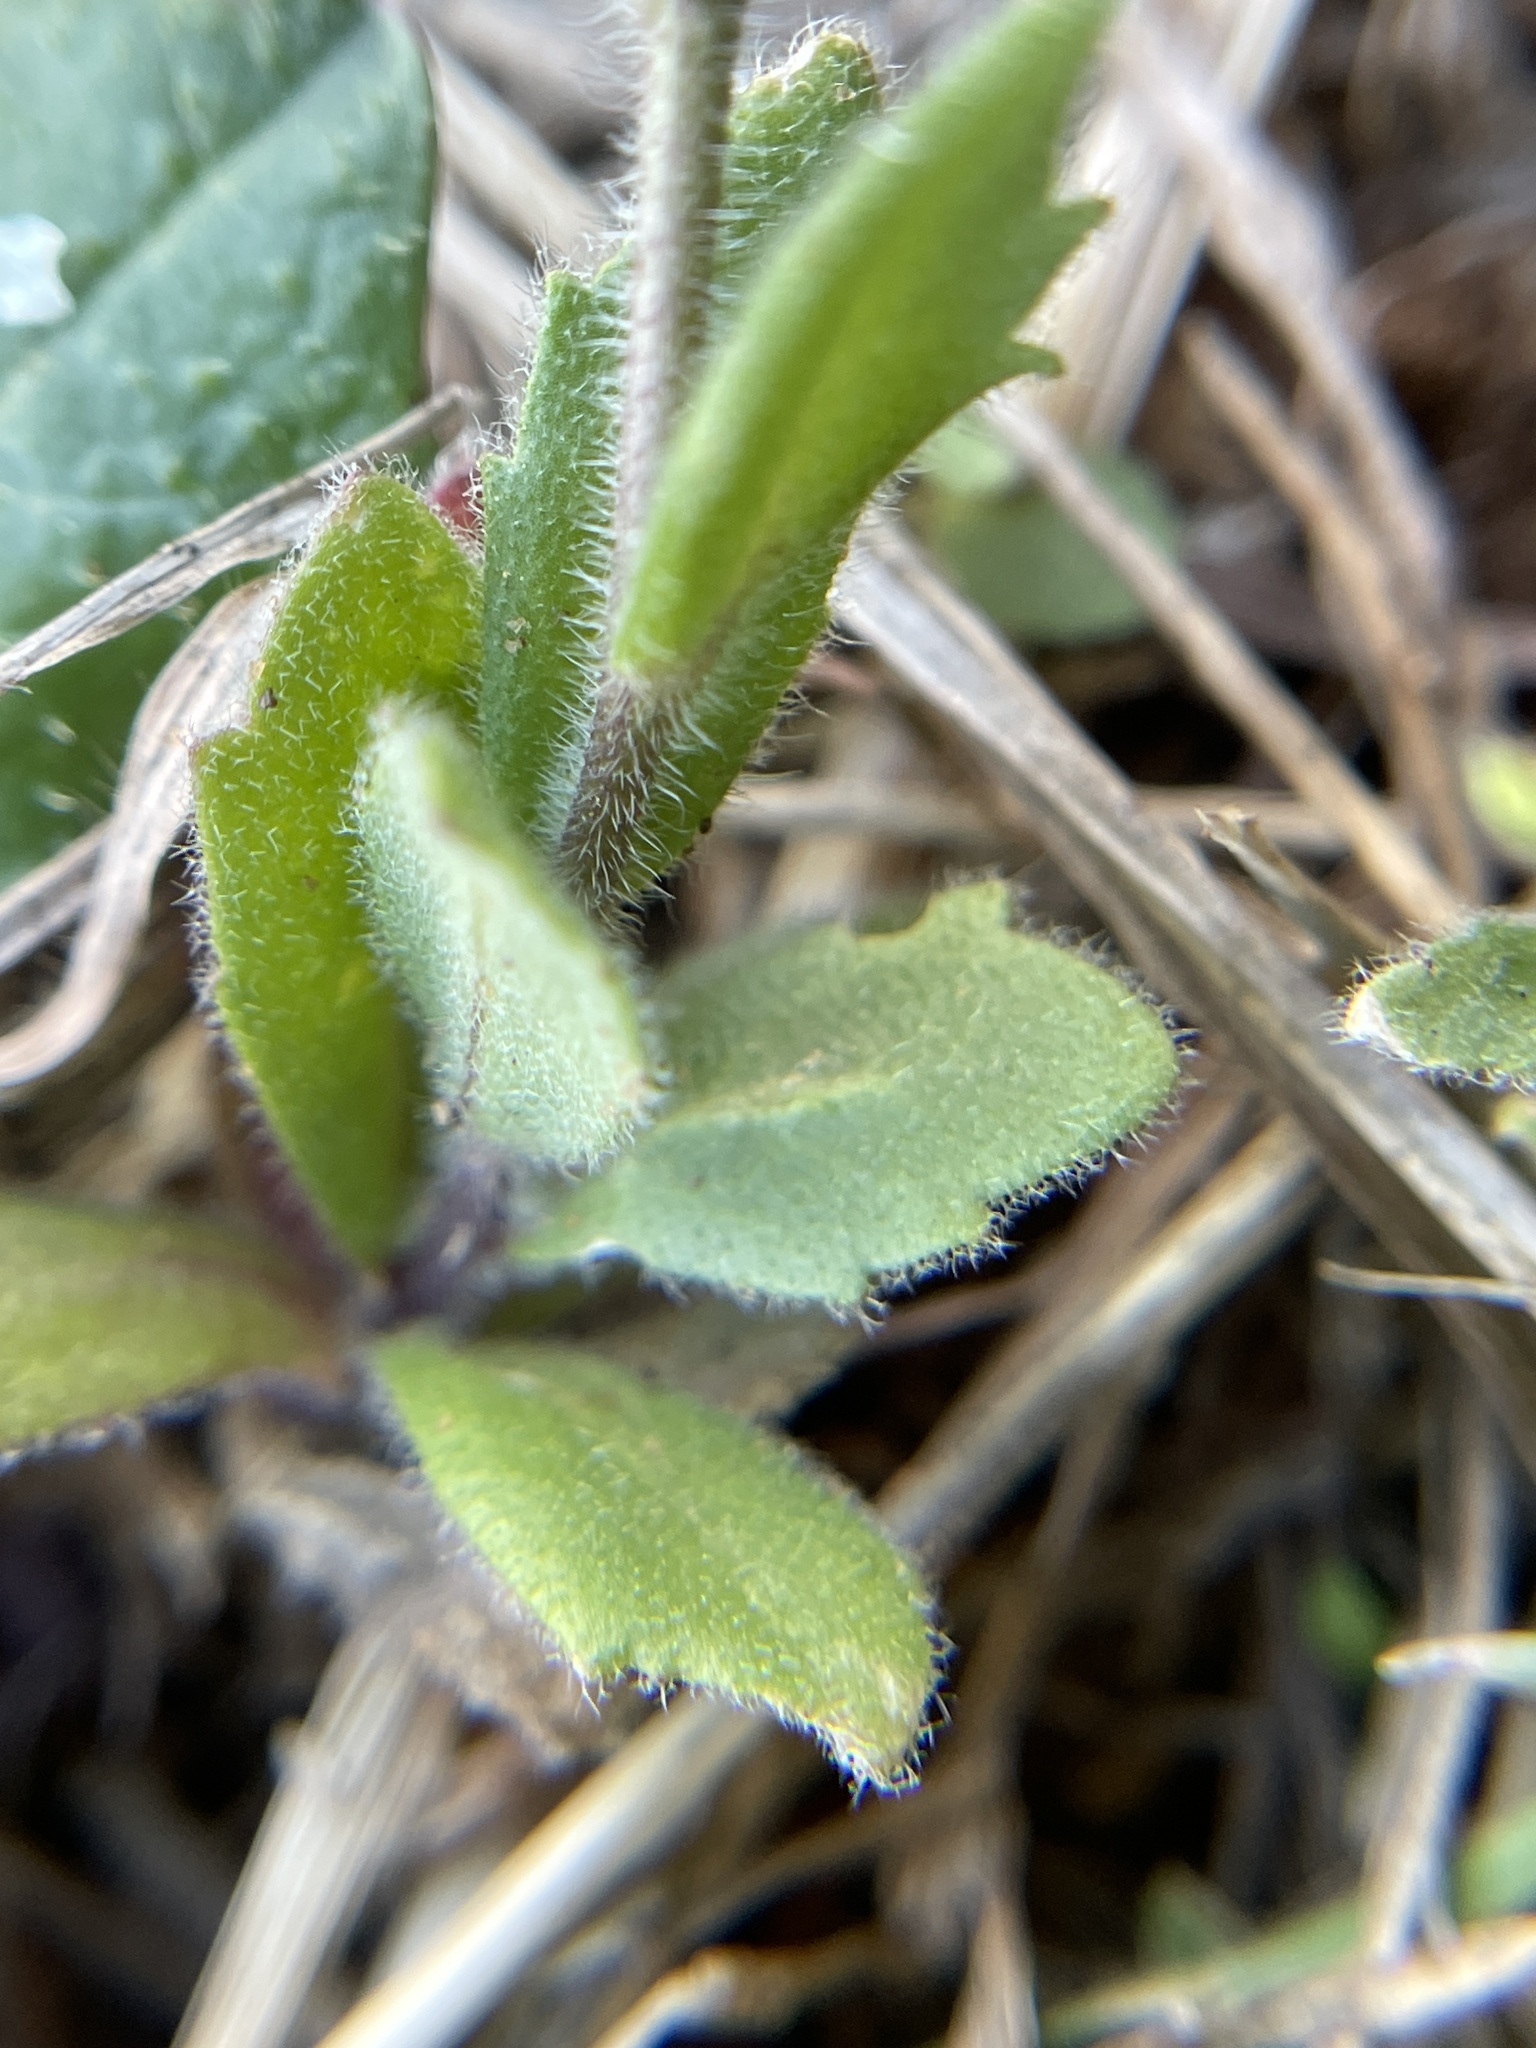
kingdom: Plantae
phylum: Tracheophyta
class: Magnoliopsida
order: Brassicales
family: Brassicaceae
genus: Tomostima
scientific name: Tomostima platycarpa
